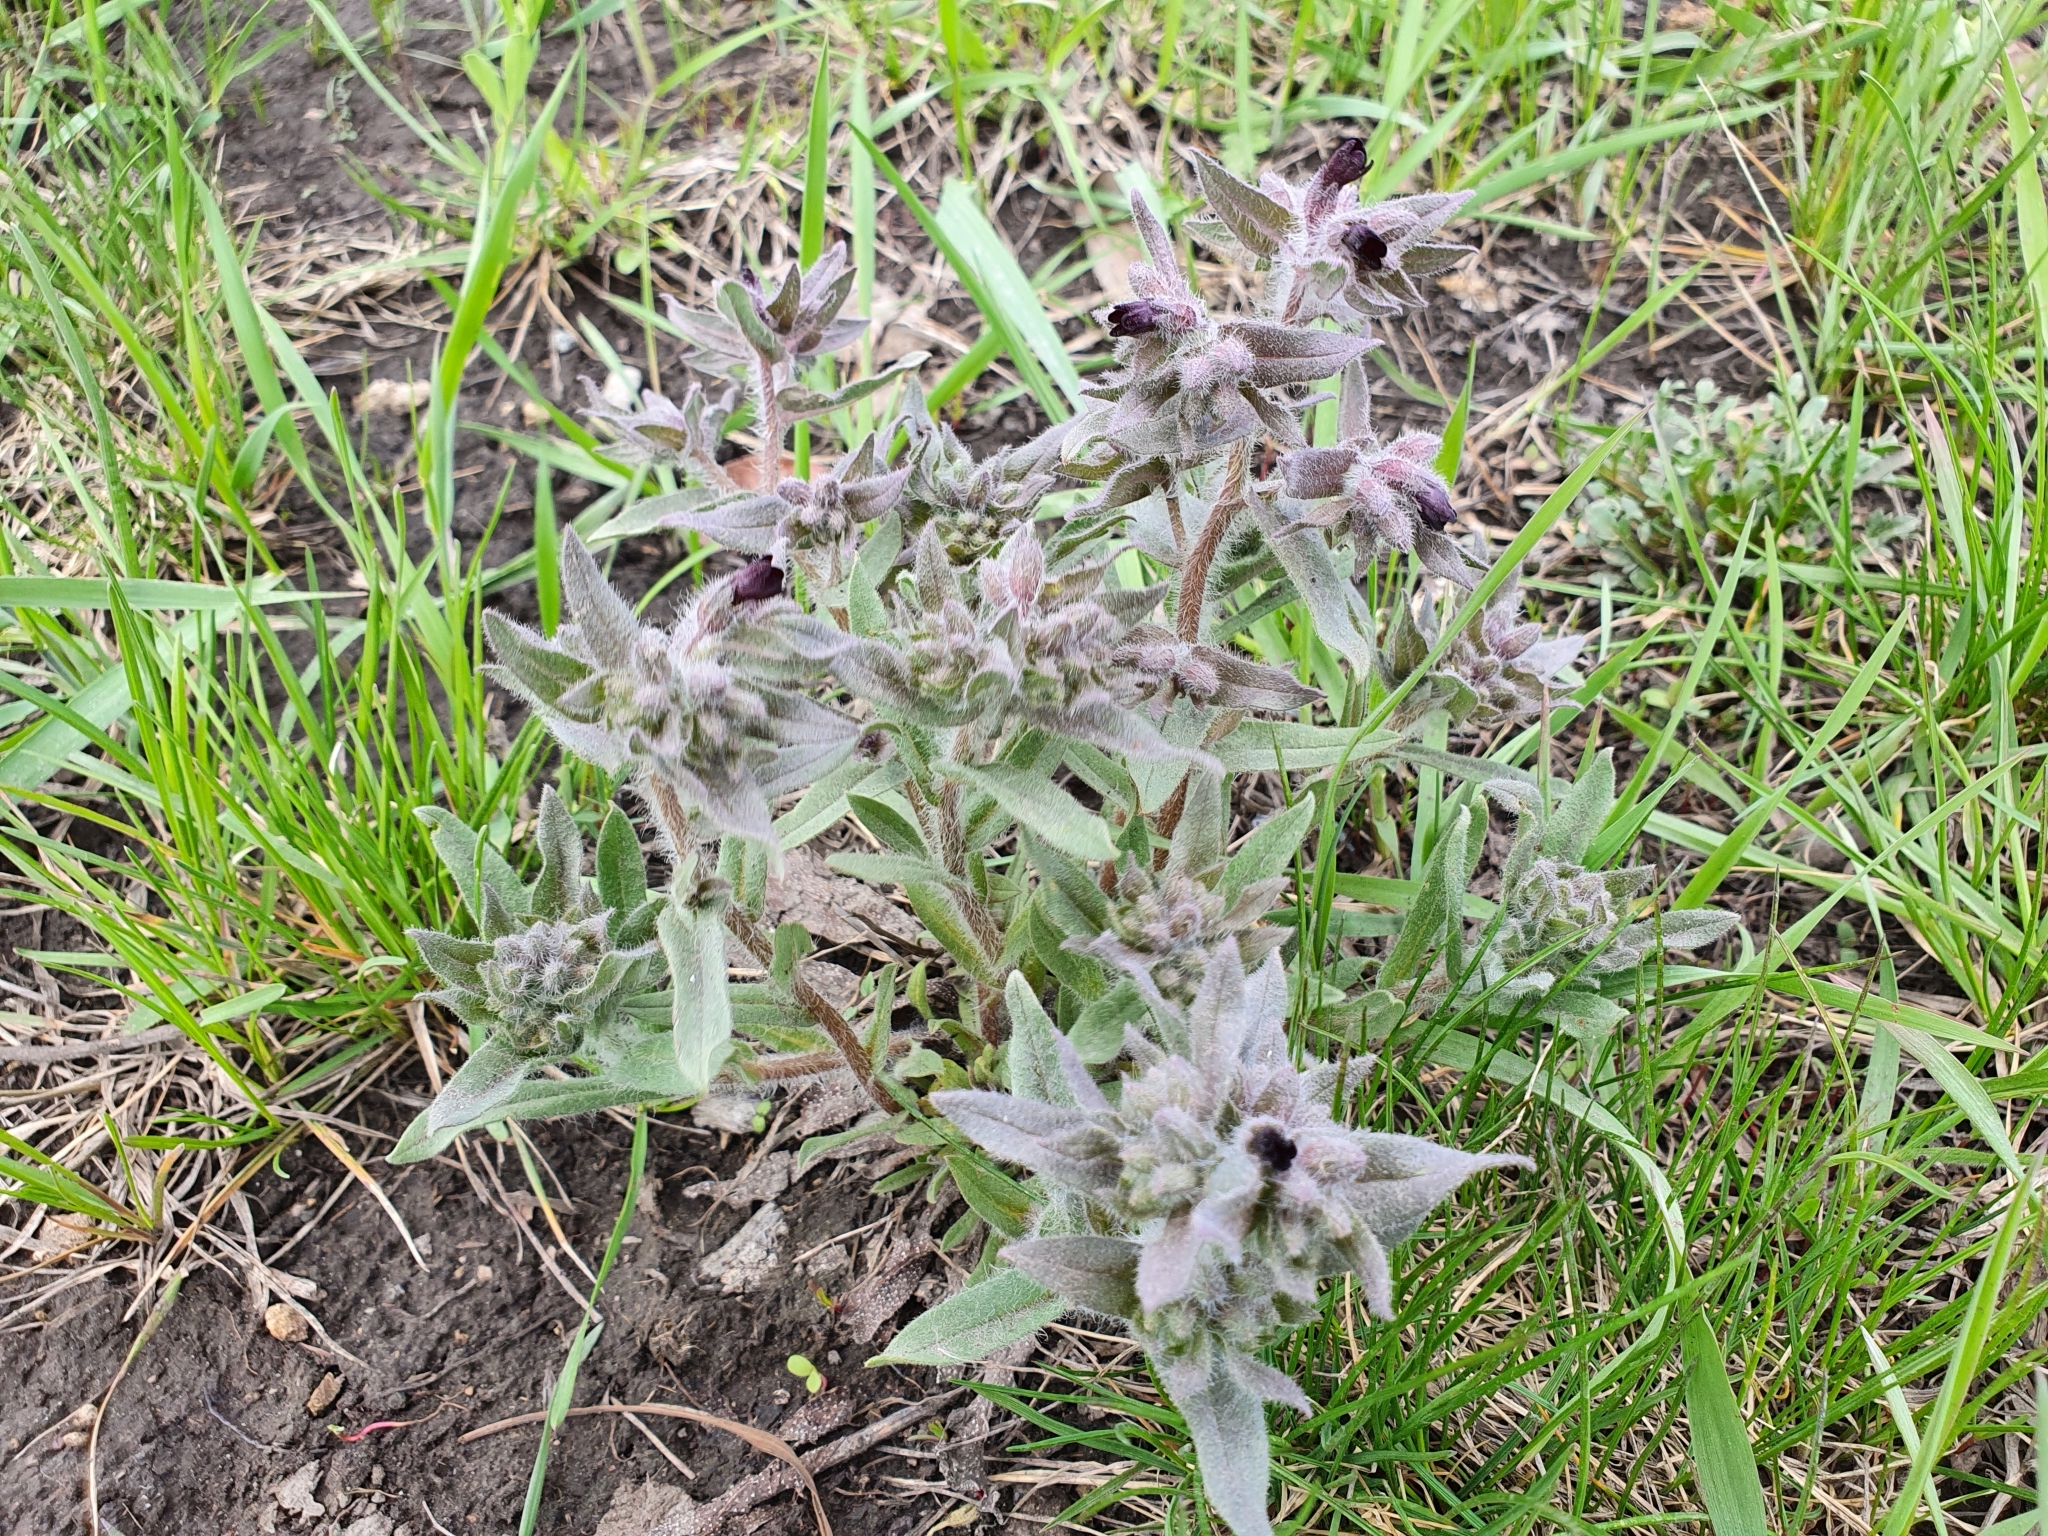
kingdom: Plantae
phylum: Tracheophyta
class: Magnoliopsida
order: Boraginales
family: Boraginaceae
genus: Nonea
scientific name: Nonea pulla
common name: Brown nonea
